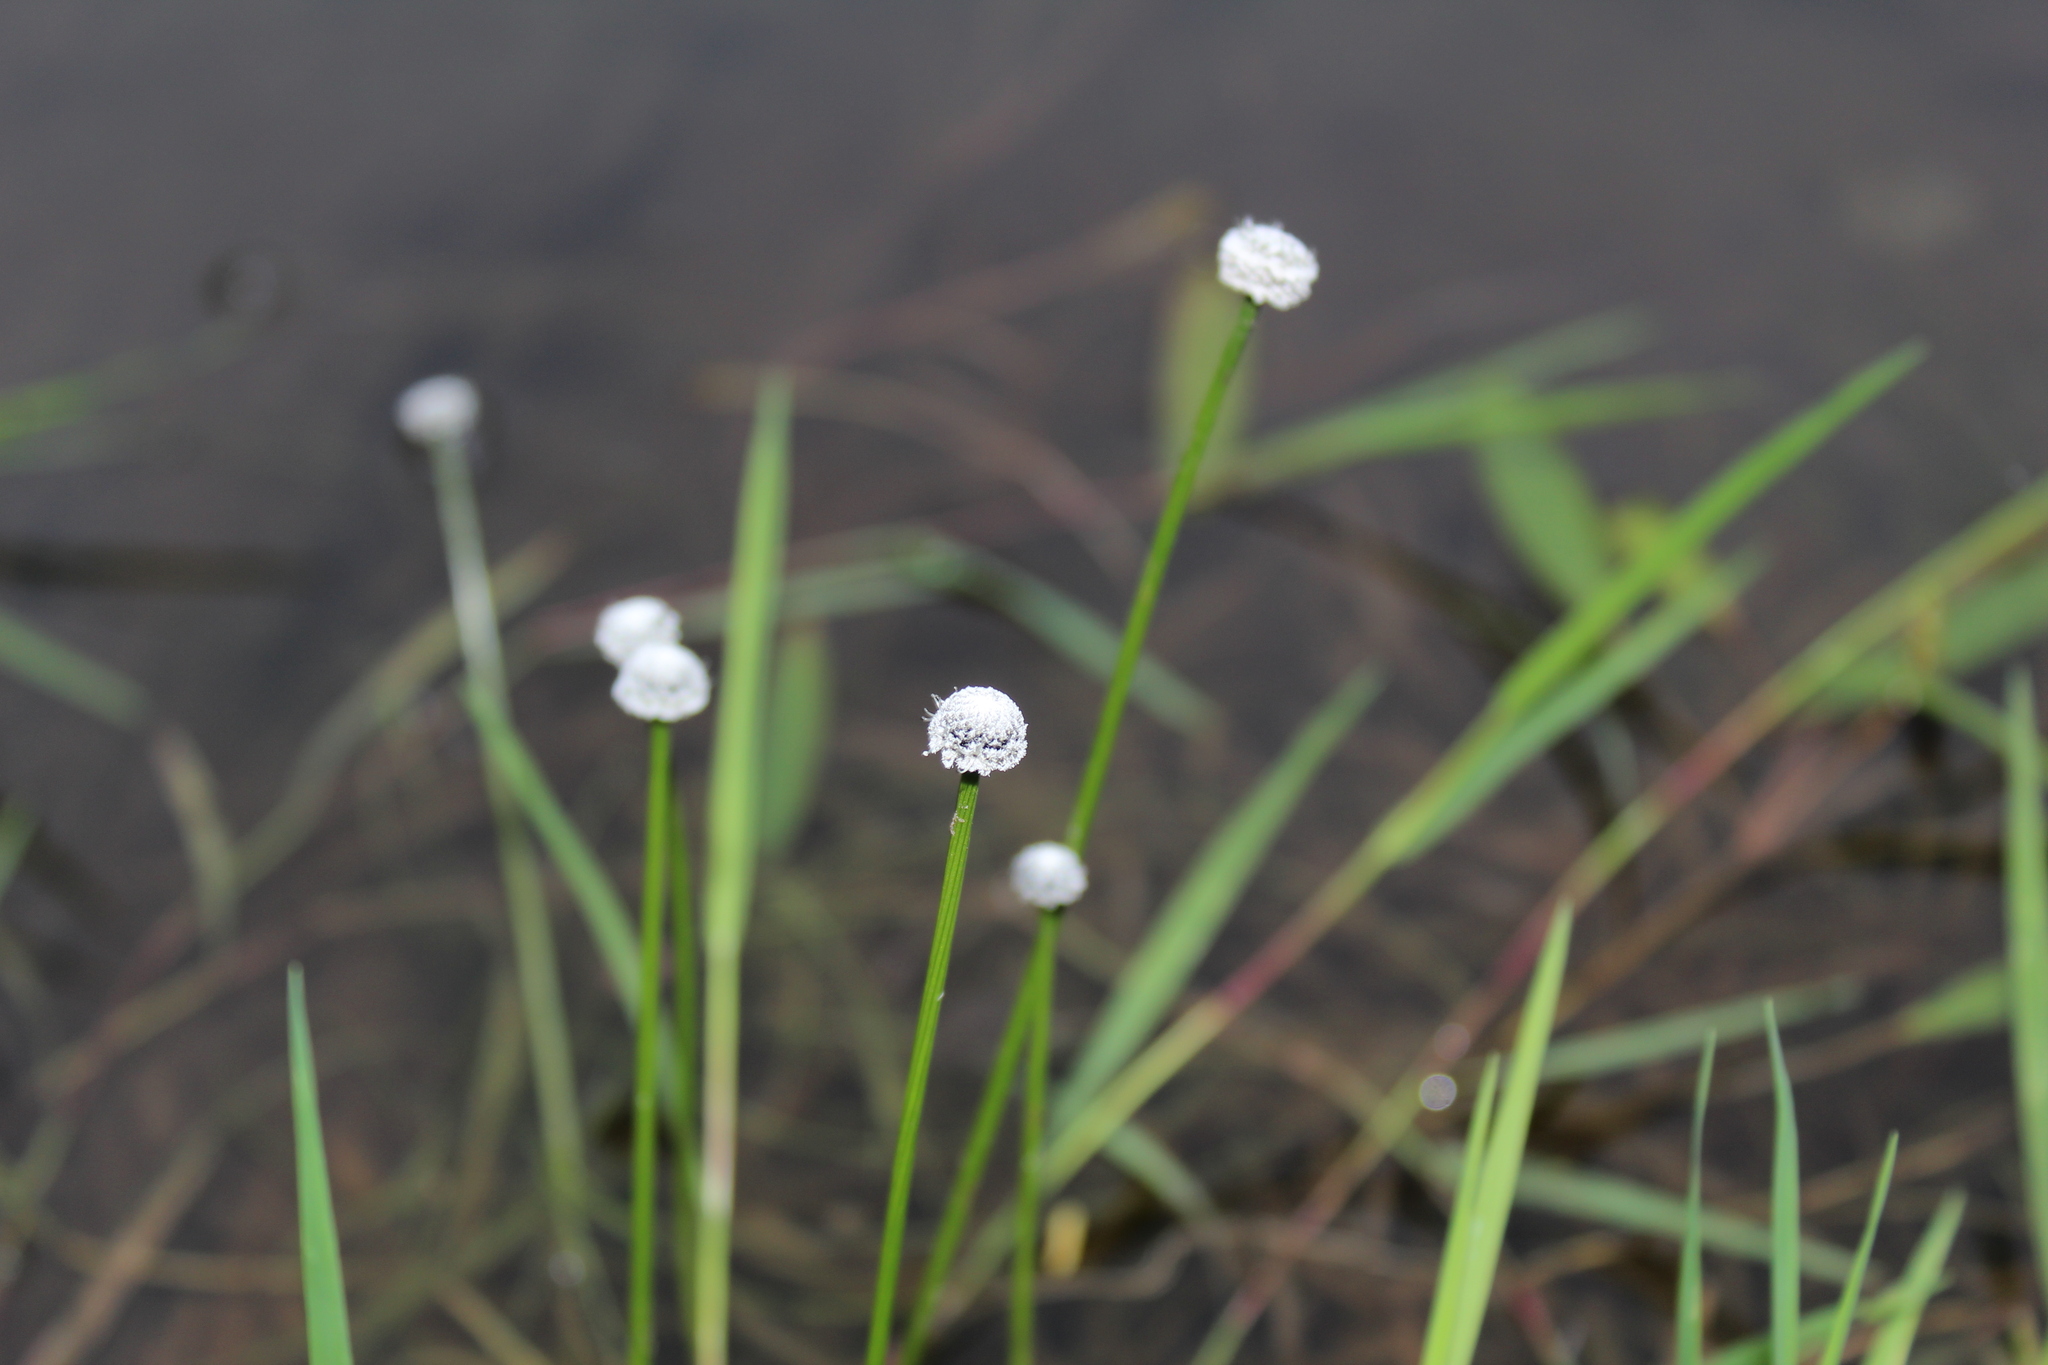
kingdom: Plantae
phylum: Tracheophyta
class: Liliopsida
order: Poales
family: Eriocaulaceae
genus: Eriocaulon
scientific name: Eriocaulon aquaticum
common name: Pipewort
